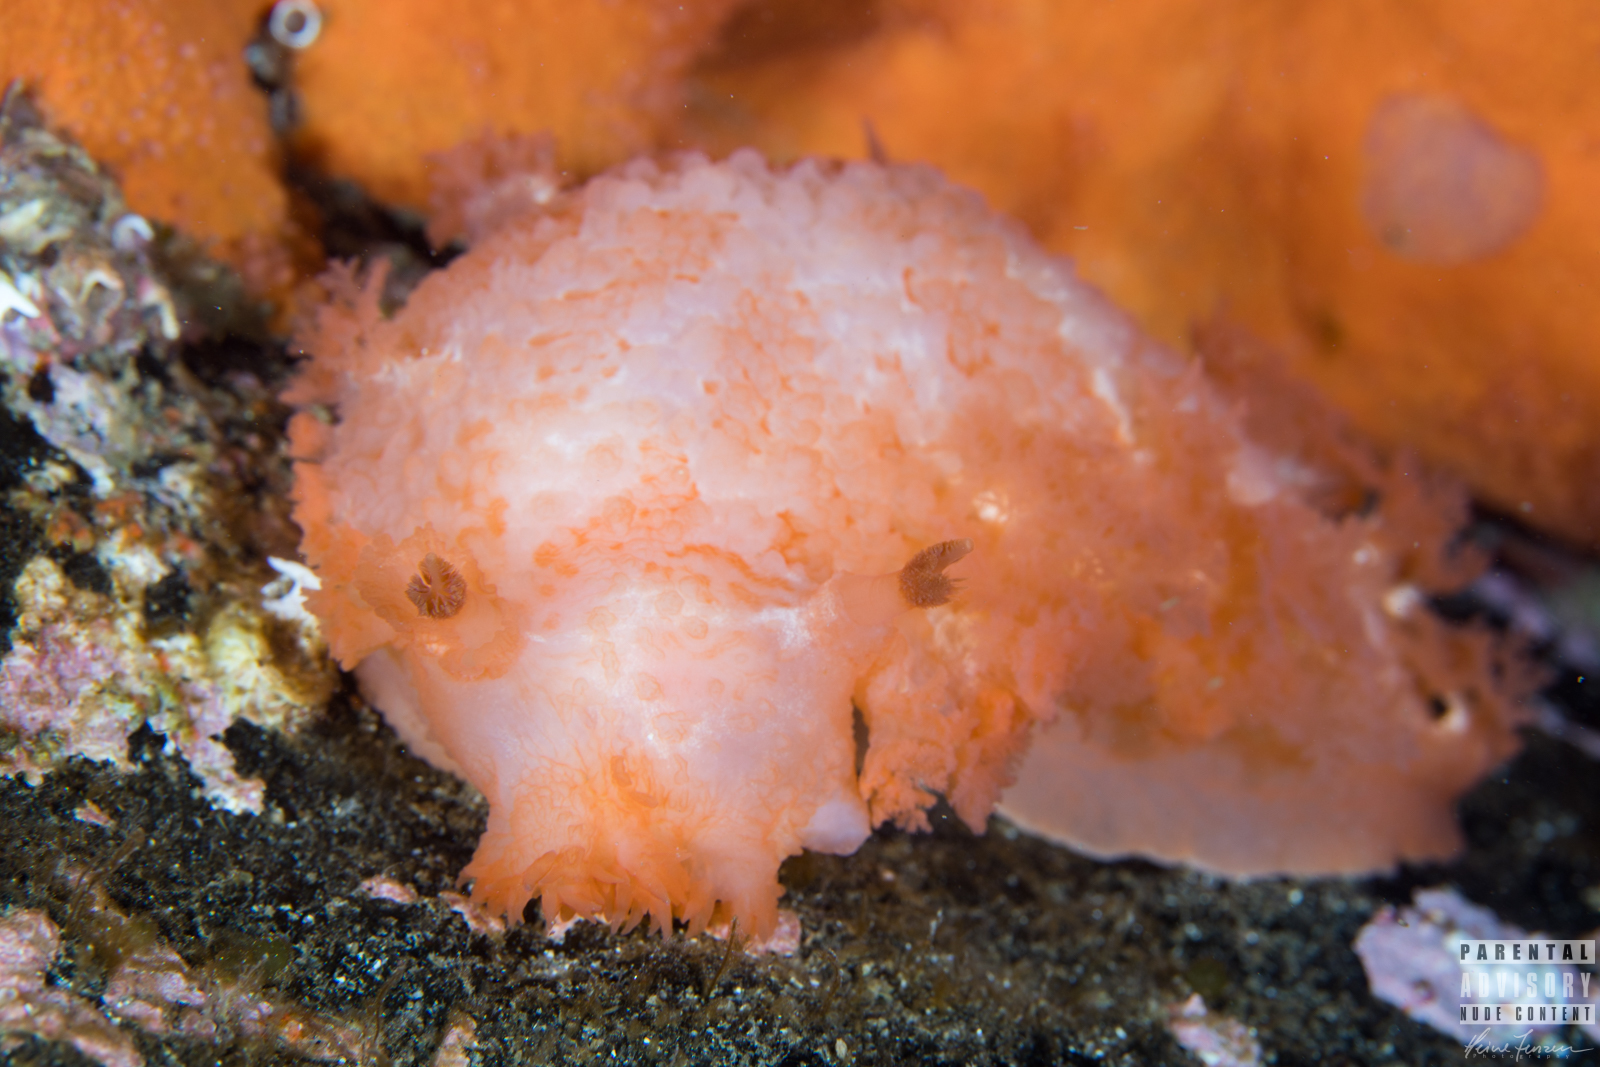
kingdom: Animalia
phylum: Mollusca
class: Gastropoda
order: Nudibranchia
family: Tritoniidae
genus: Tritonia
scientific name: Tritonia hombergii
